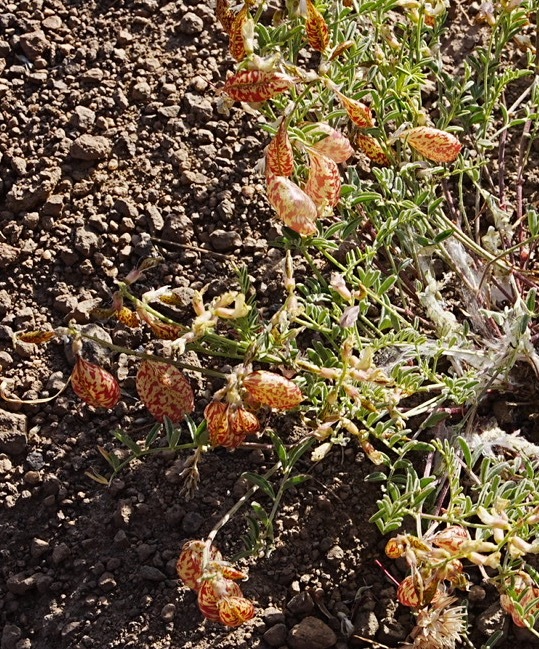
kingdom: Plantae
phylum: Tracheophyta
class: Magnoliopsida
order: Fabales
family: Fabaceae
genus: Astragalus
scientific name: Astragalus whitneyi
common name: Balloonpod milkvetch
